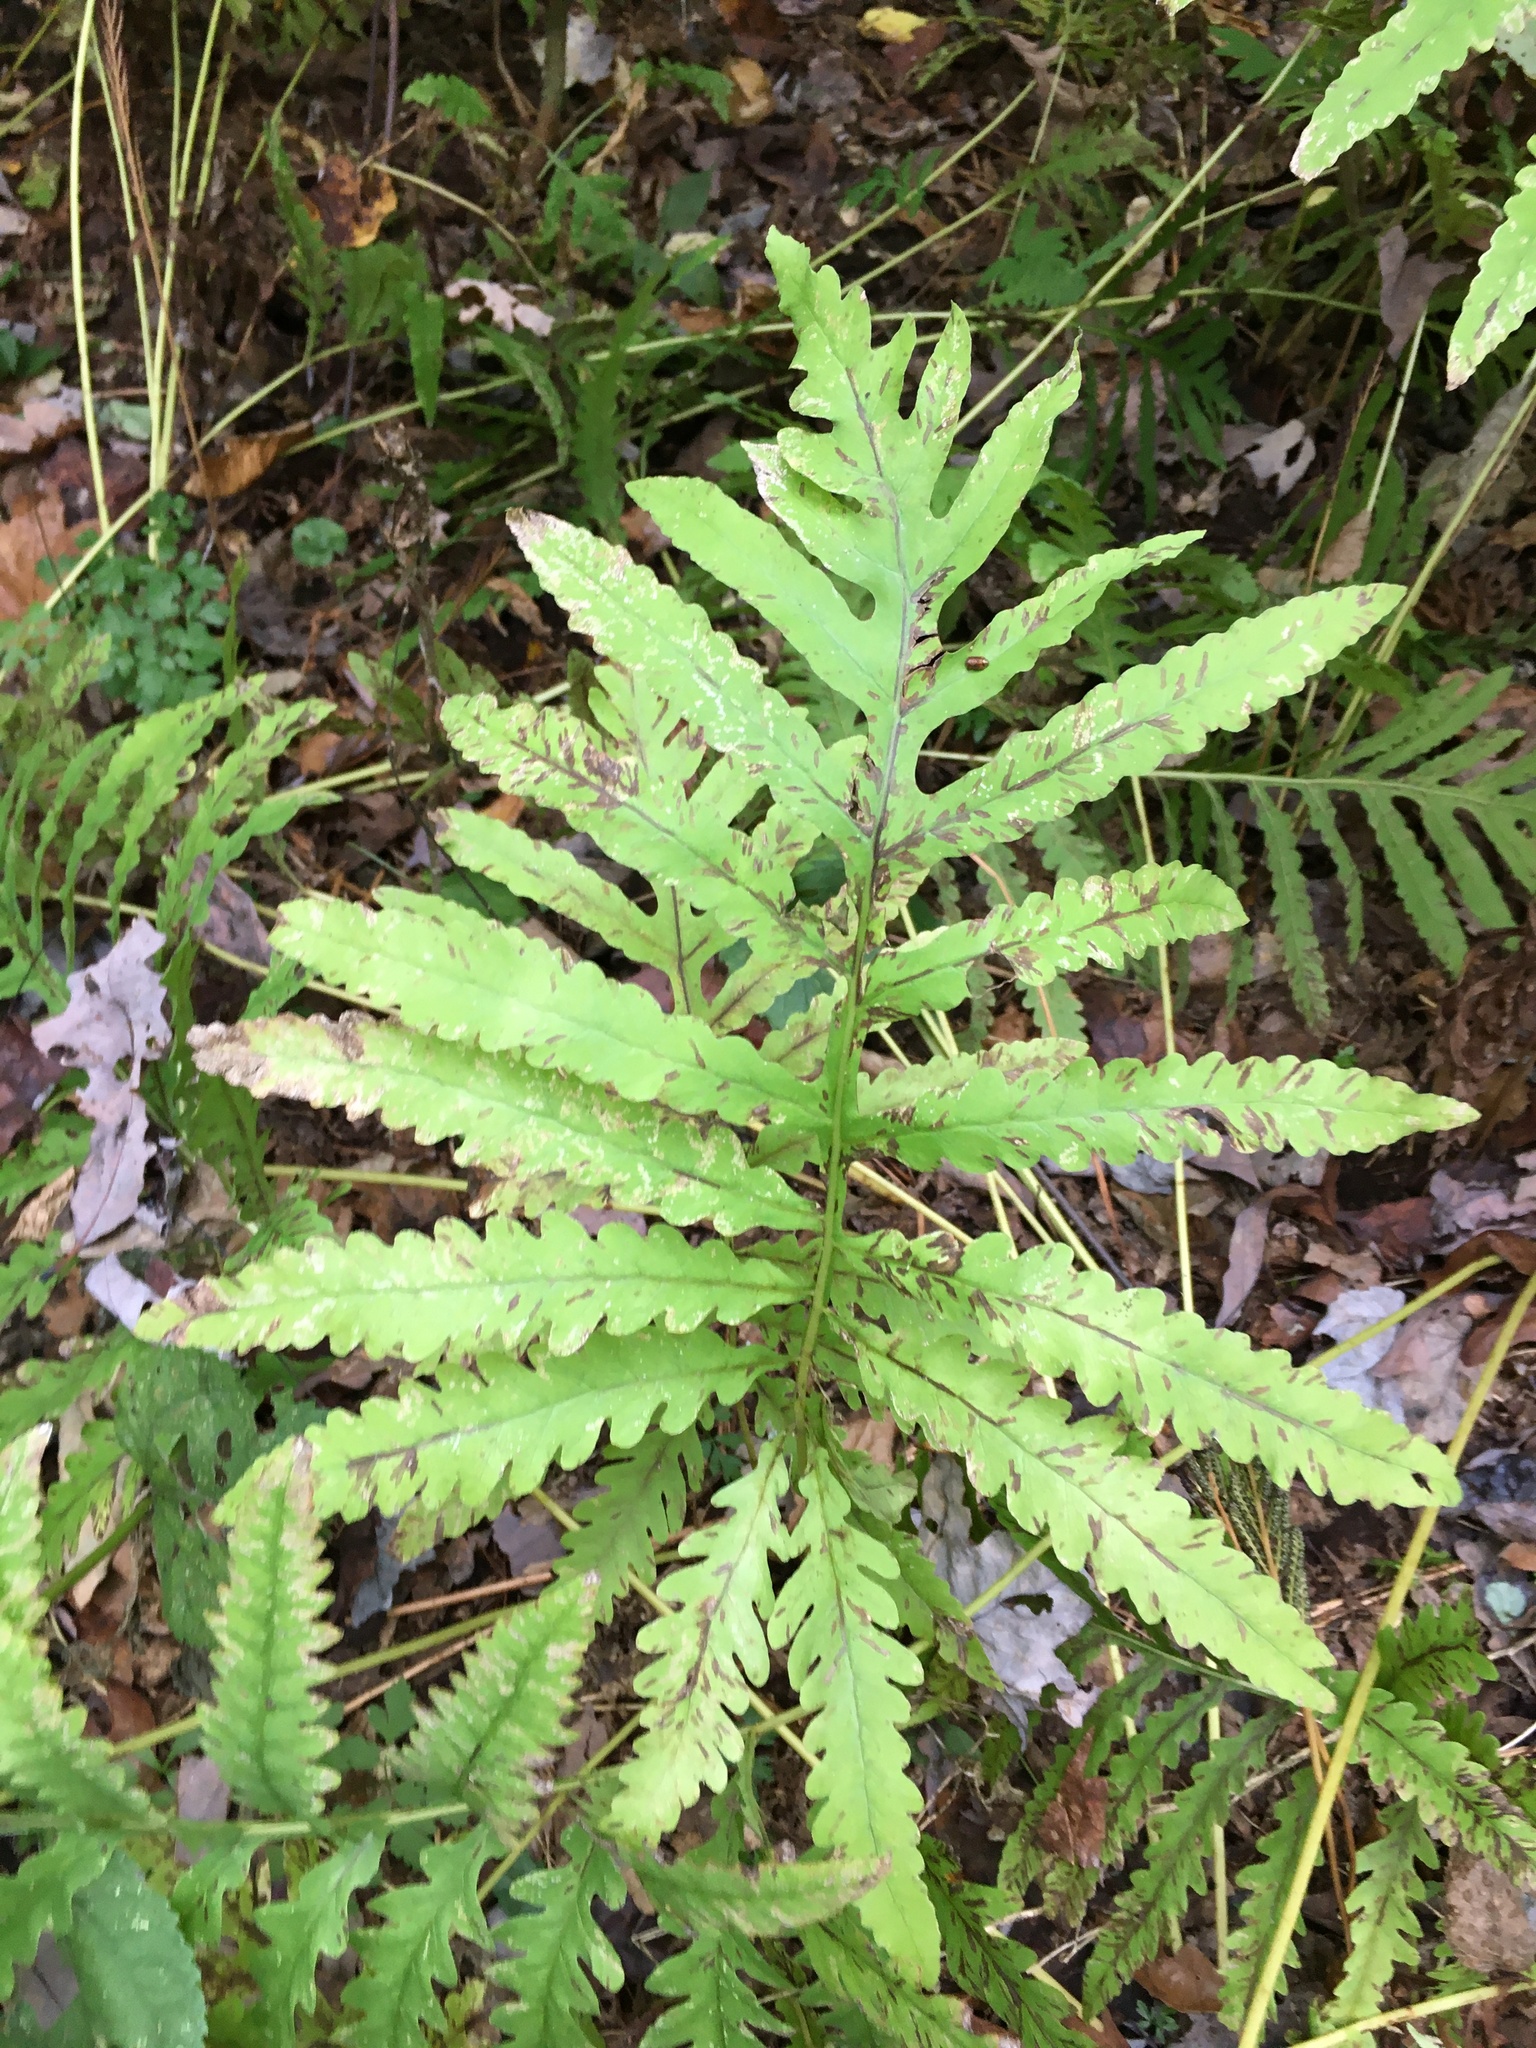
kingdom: Plantae
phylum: Tracheophyta
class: Polypodiopsida
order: Polypodiales
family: Onocleaceae
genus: Onoclea
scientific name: Onoclea sensibilis
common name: Sensitive fern
